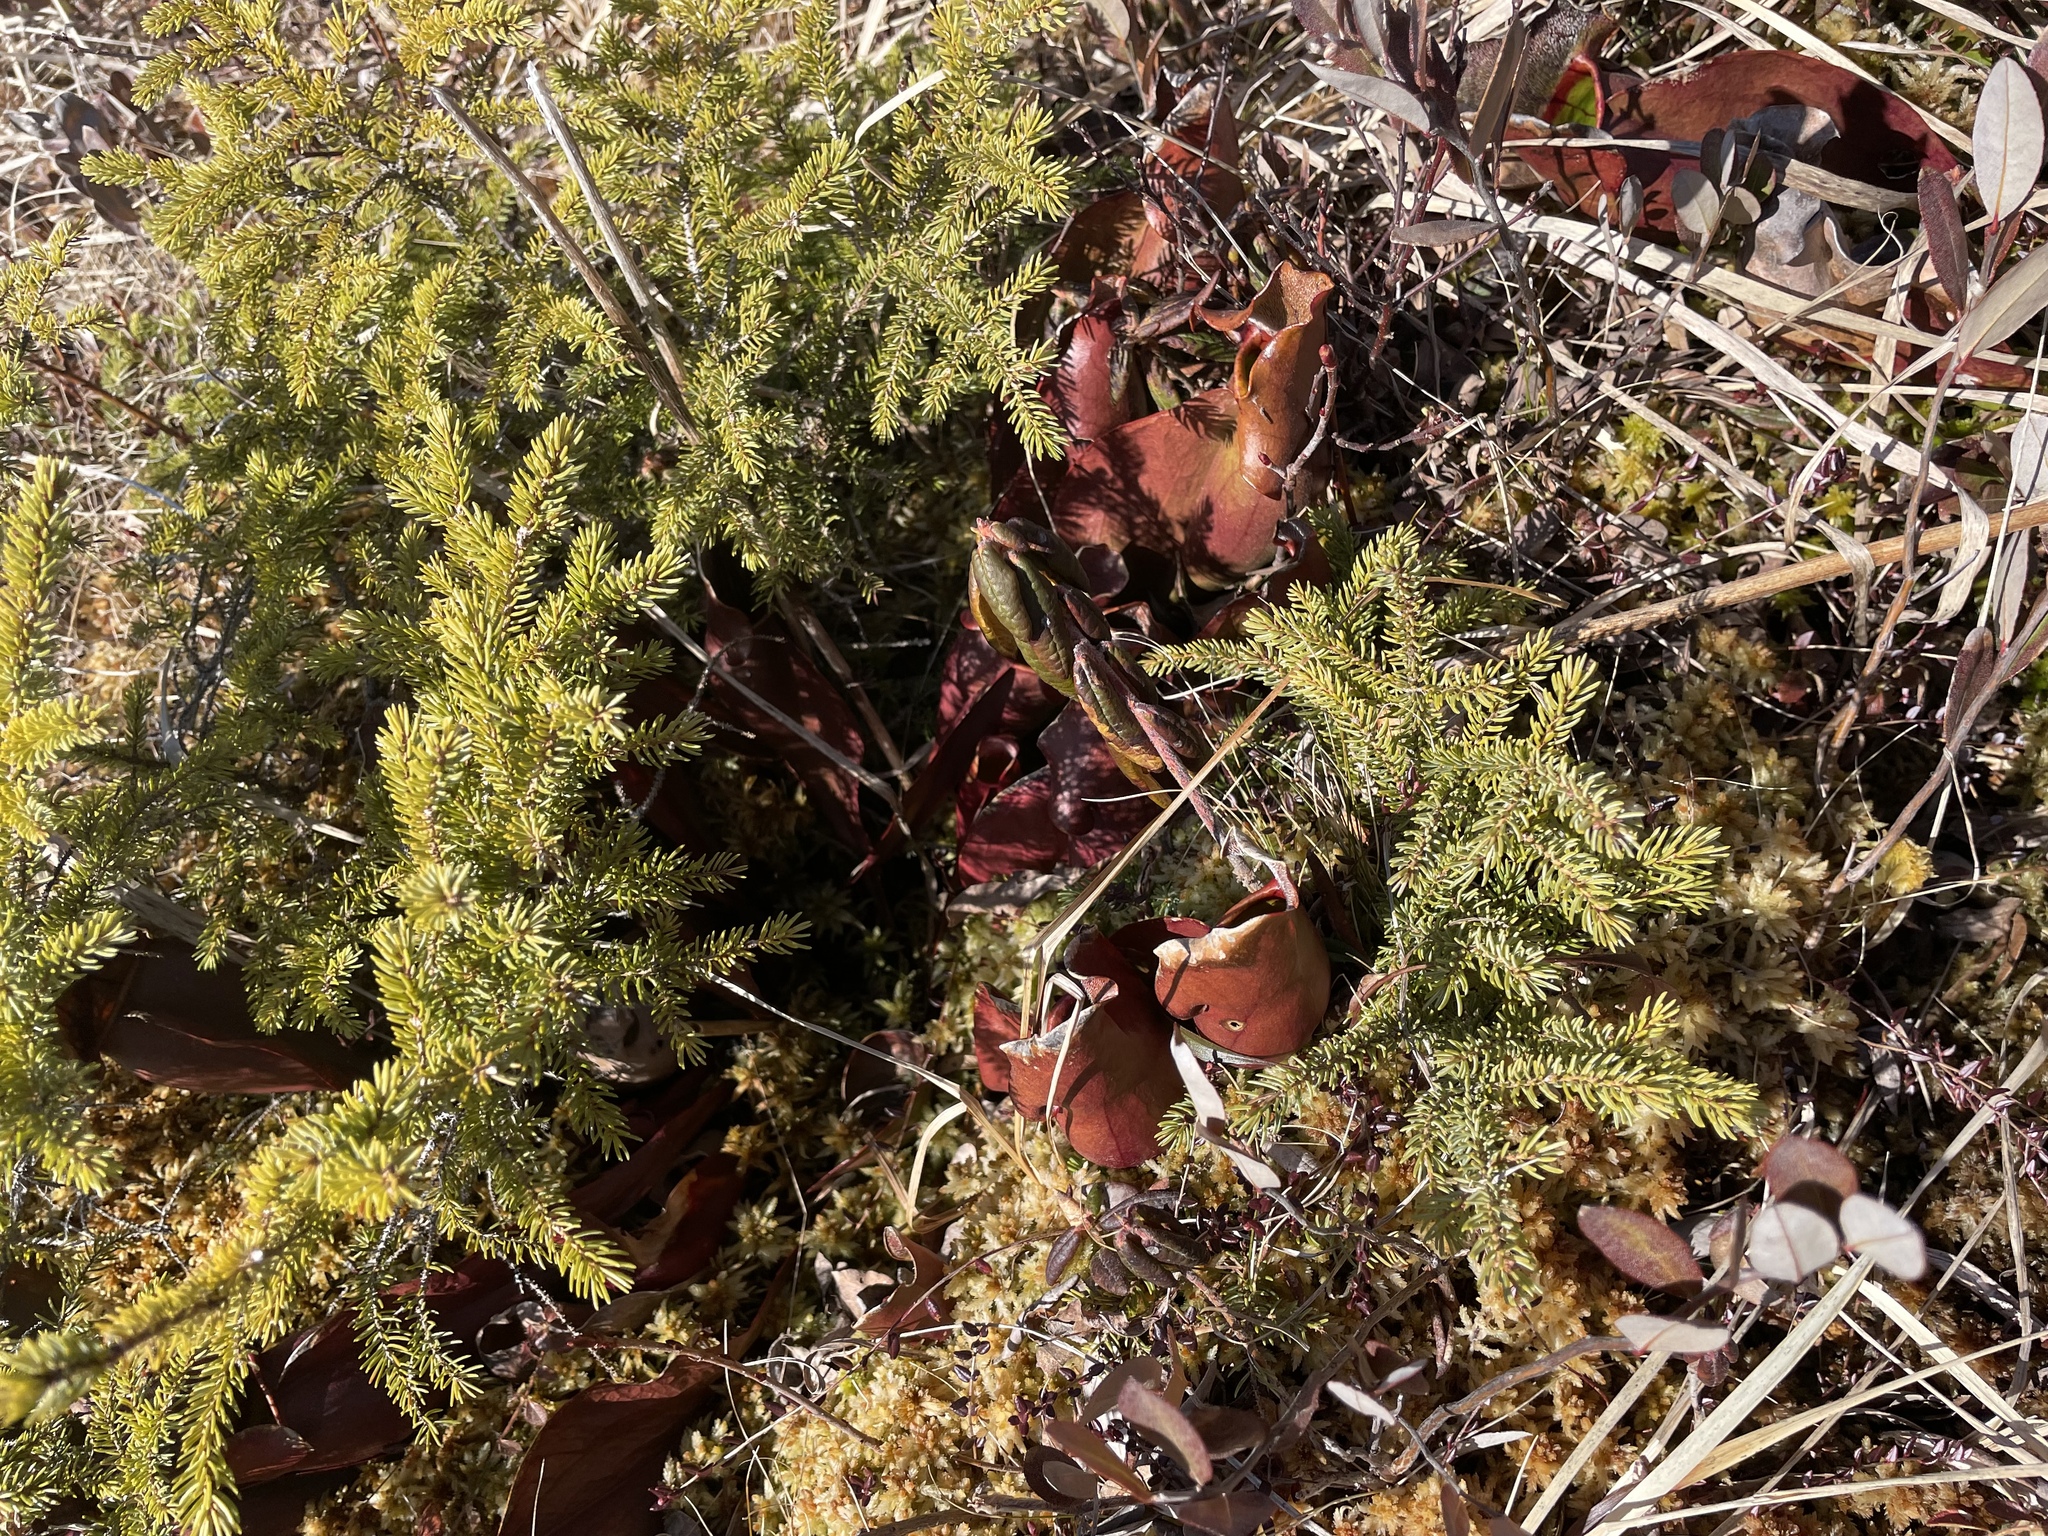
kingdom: Plantae
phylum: Tracheophyta
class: Magnoliopsida
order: Ericales
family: Sarraceniaceae
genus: Sarracenia
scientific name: Sarracenia purpurea
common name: Pitcherplant
